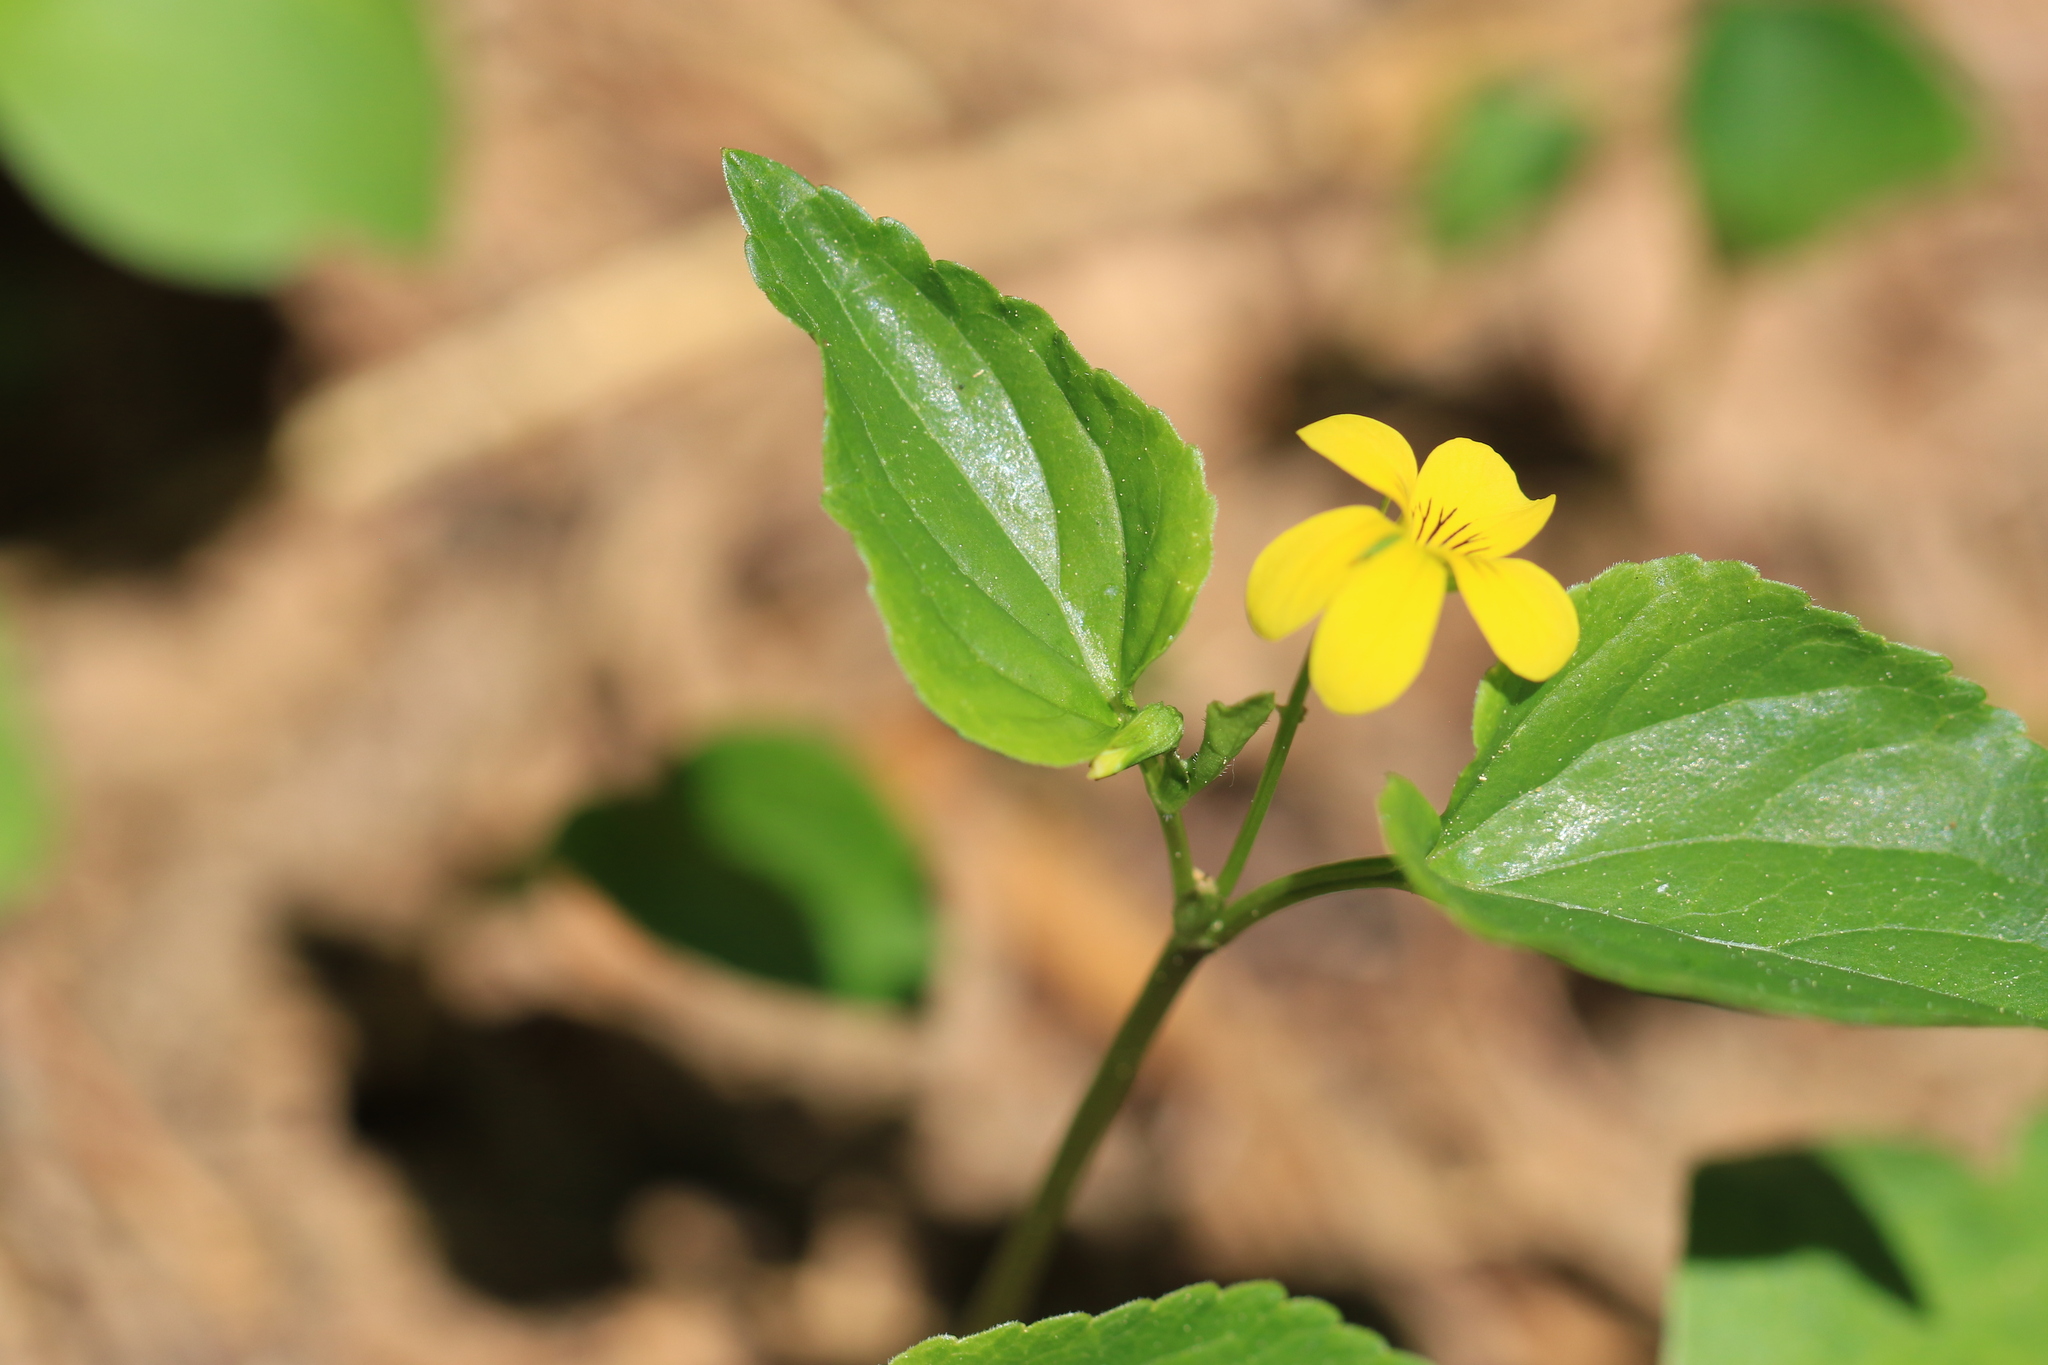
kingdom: Plantae
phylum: Tracheophyta
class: Magnoliopsida
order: Malpighiales
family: Violaceae
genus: Viola
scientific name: Viola glabella
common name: Stream violet
